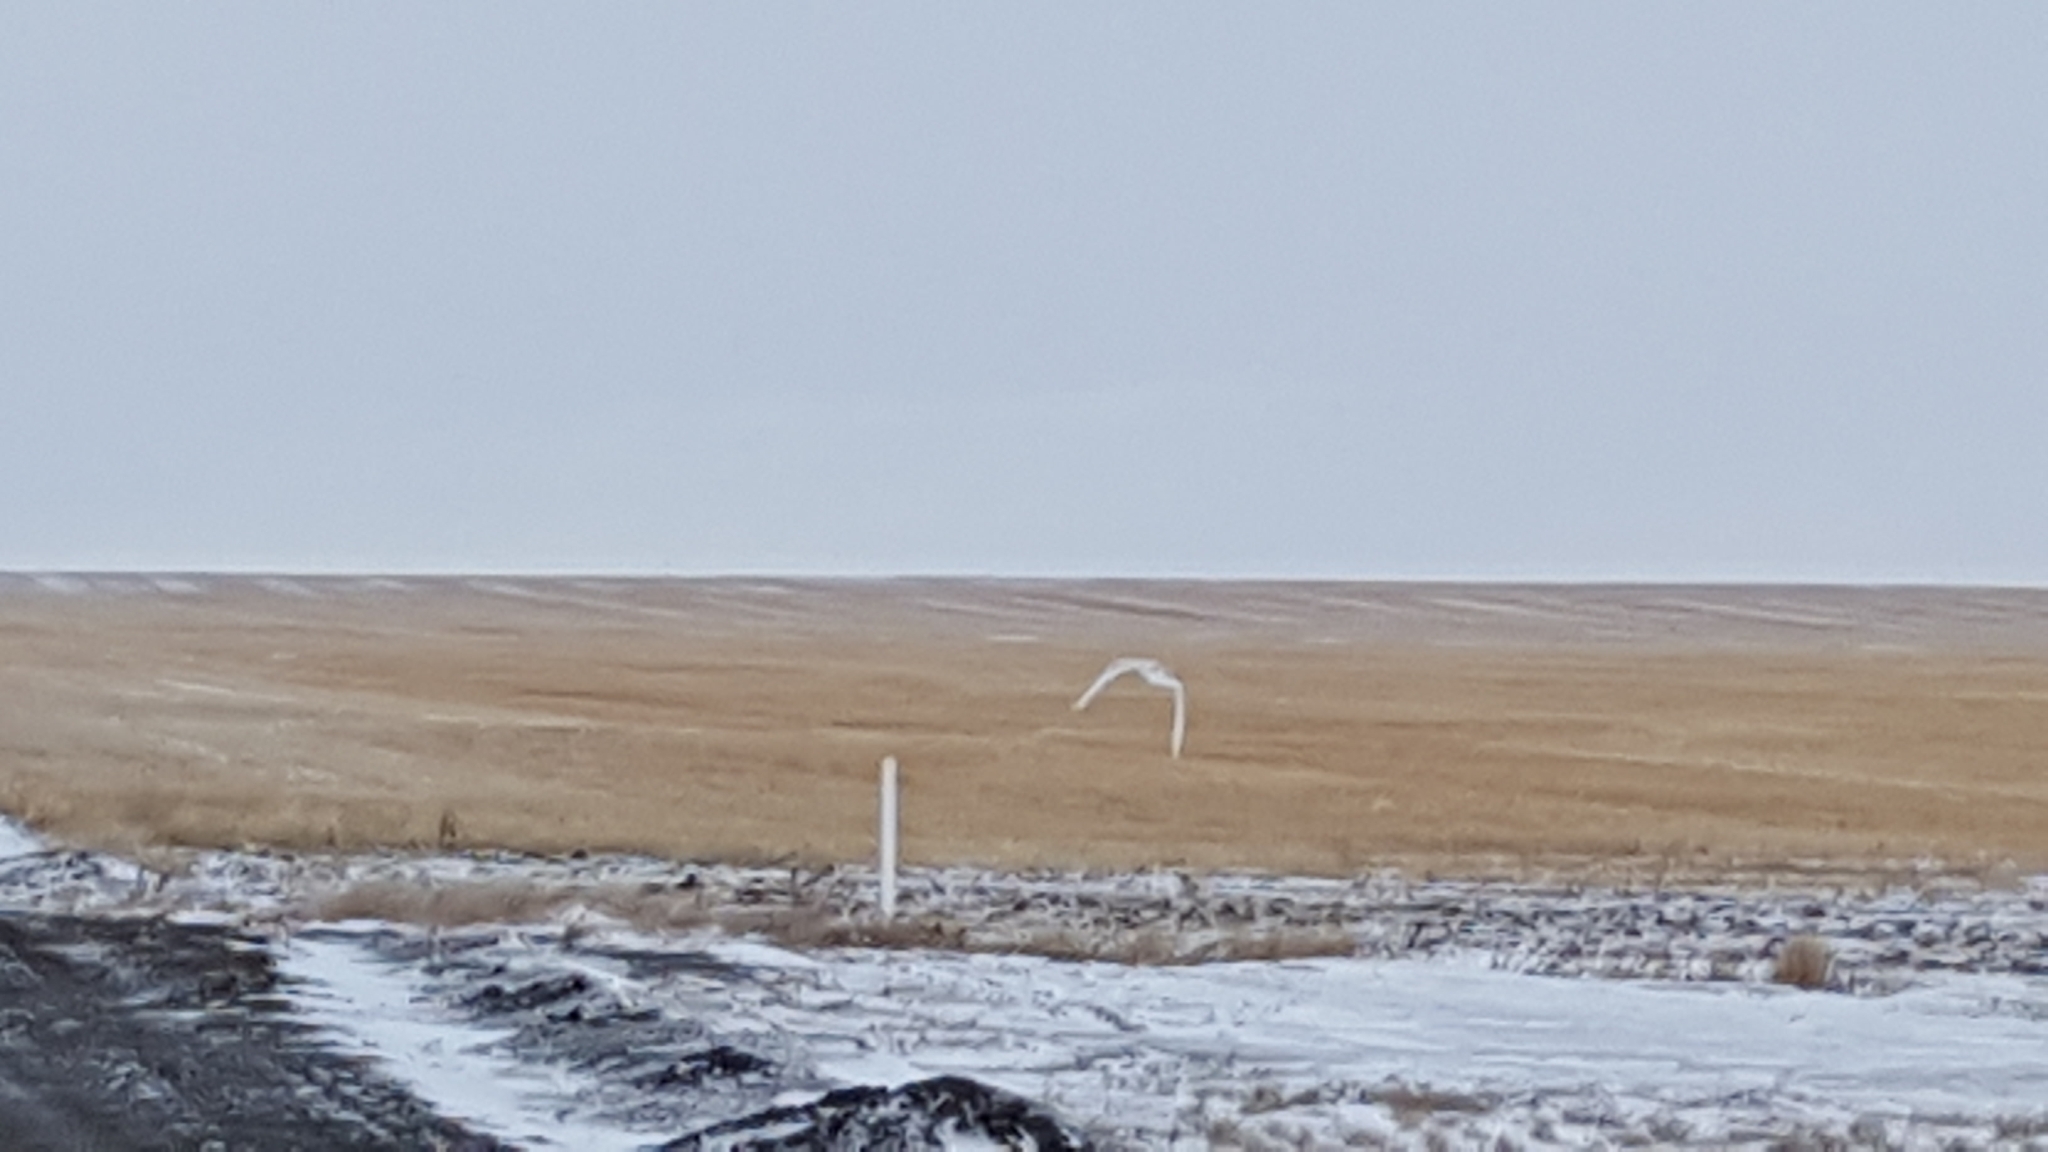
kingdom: Animalia
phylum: Chordata
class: Aves
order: Strigiformes
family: Strigidae
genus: Bubo
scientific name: Bubo scandiacus
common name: Snowy owl
